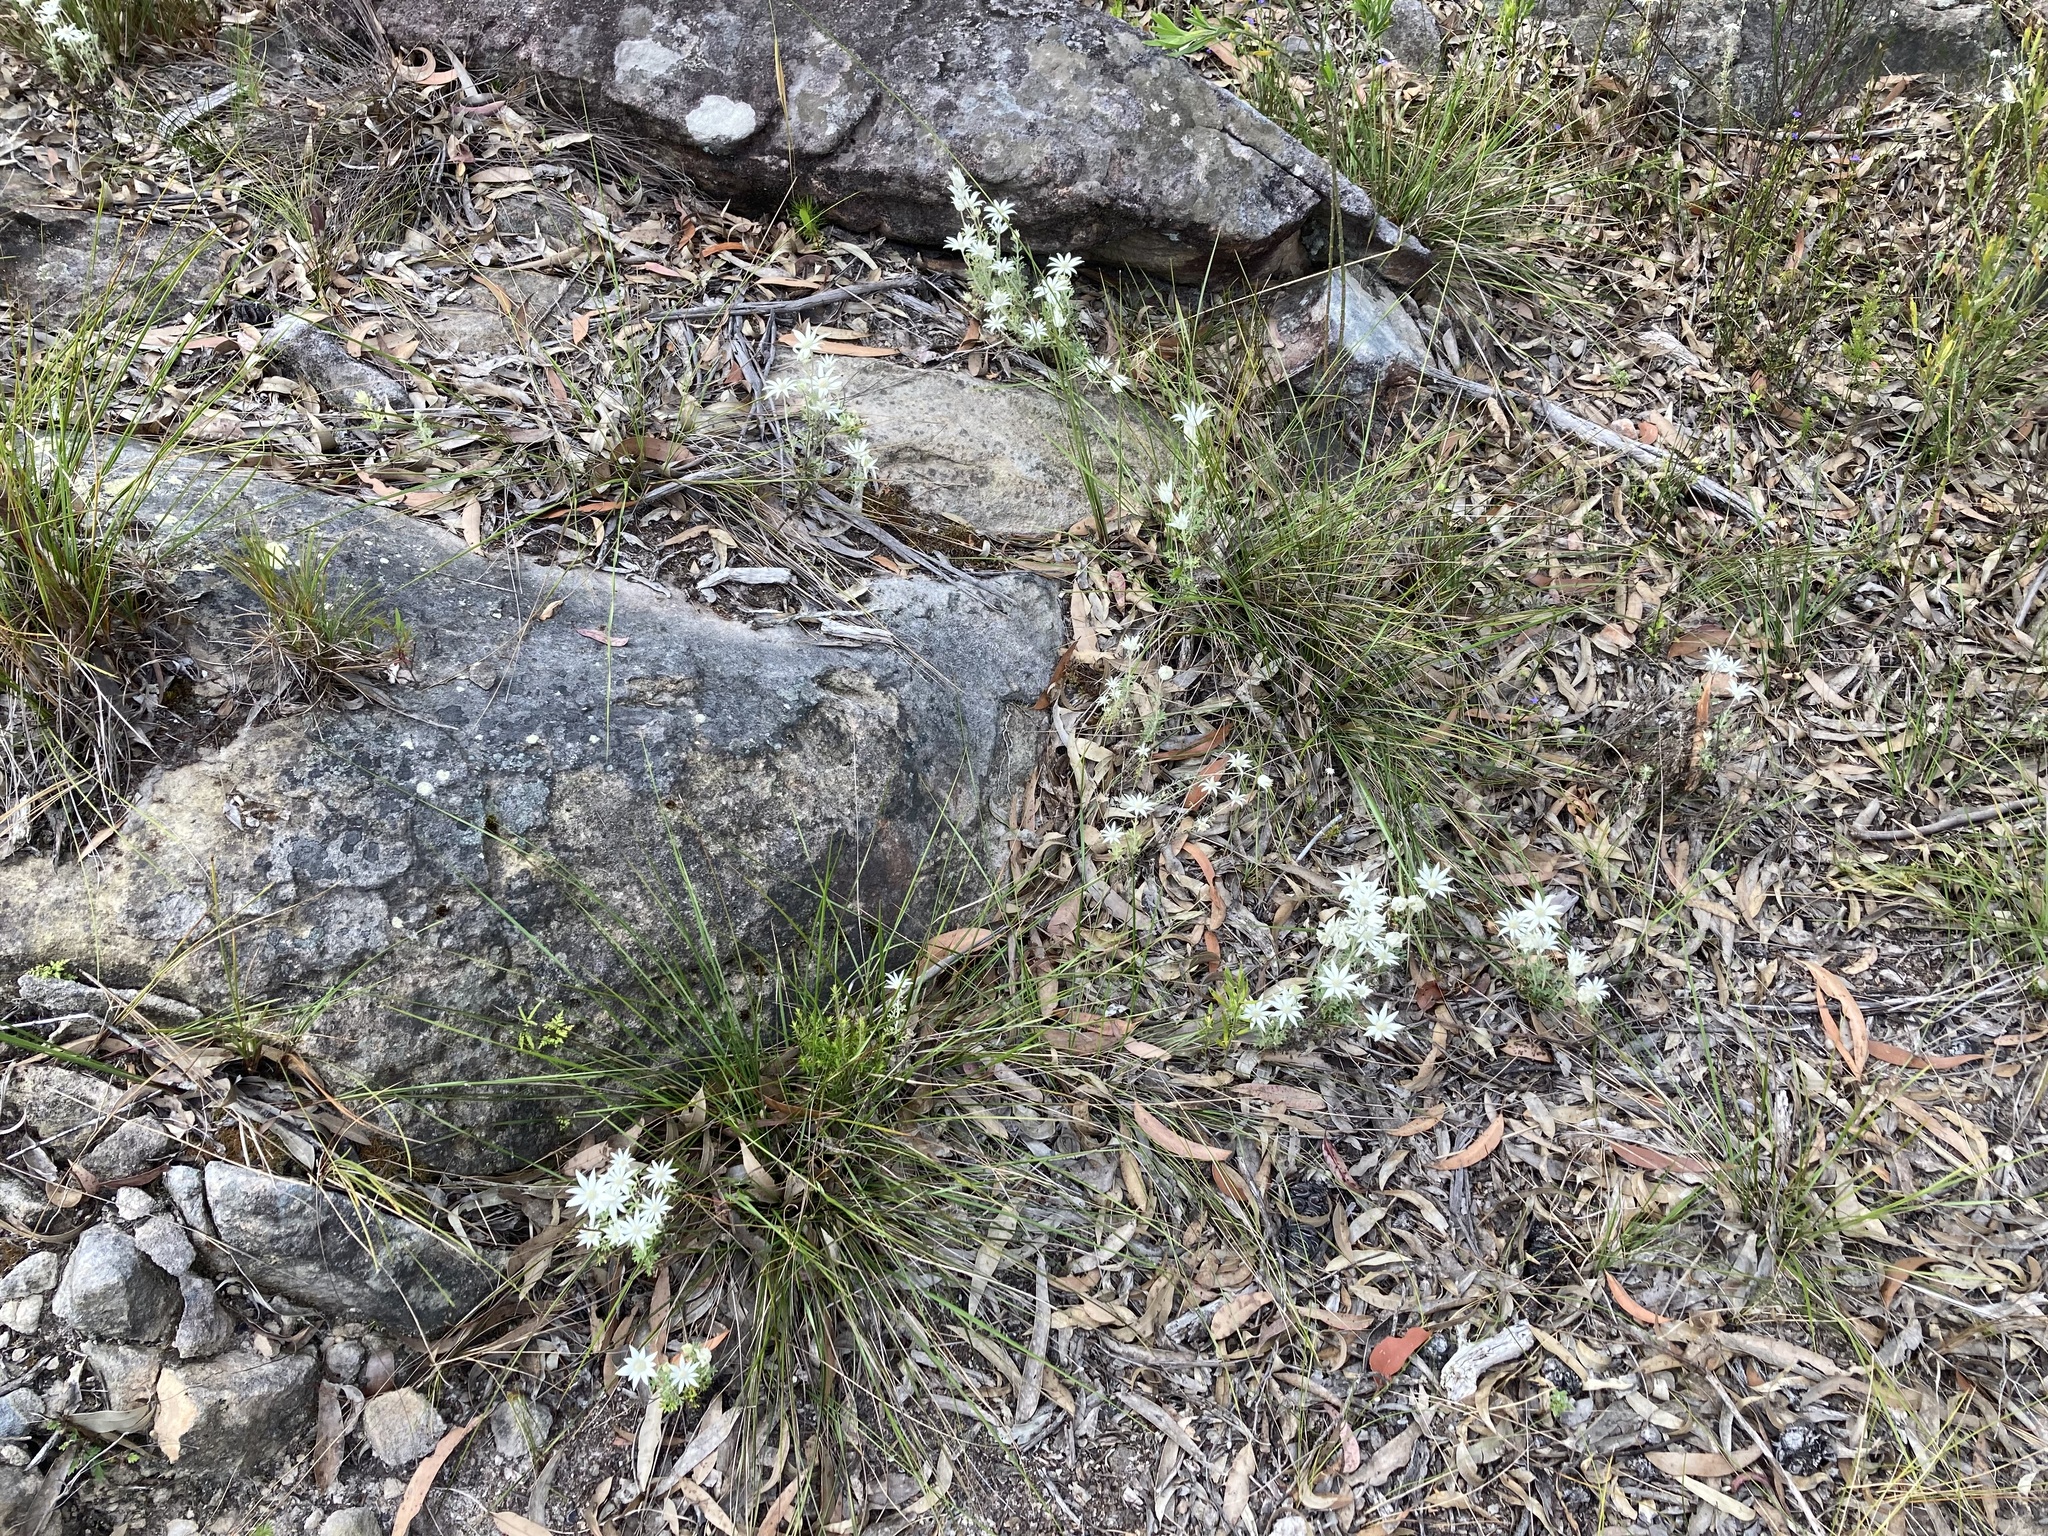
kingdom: Plantae
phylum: Tracheophyta
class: Magnoliopsida
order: Apiales
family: Apiaceae
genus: Actinotus
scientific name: Actinotus helianthi
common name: Flannel-flower
